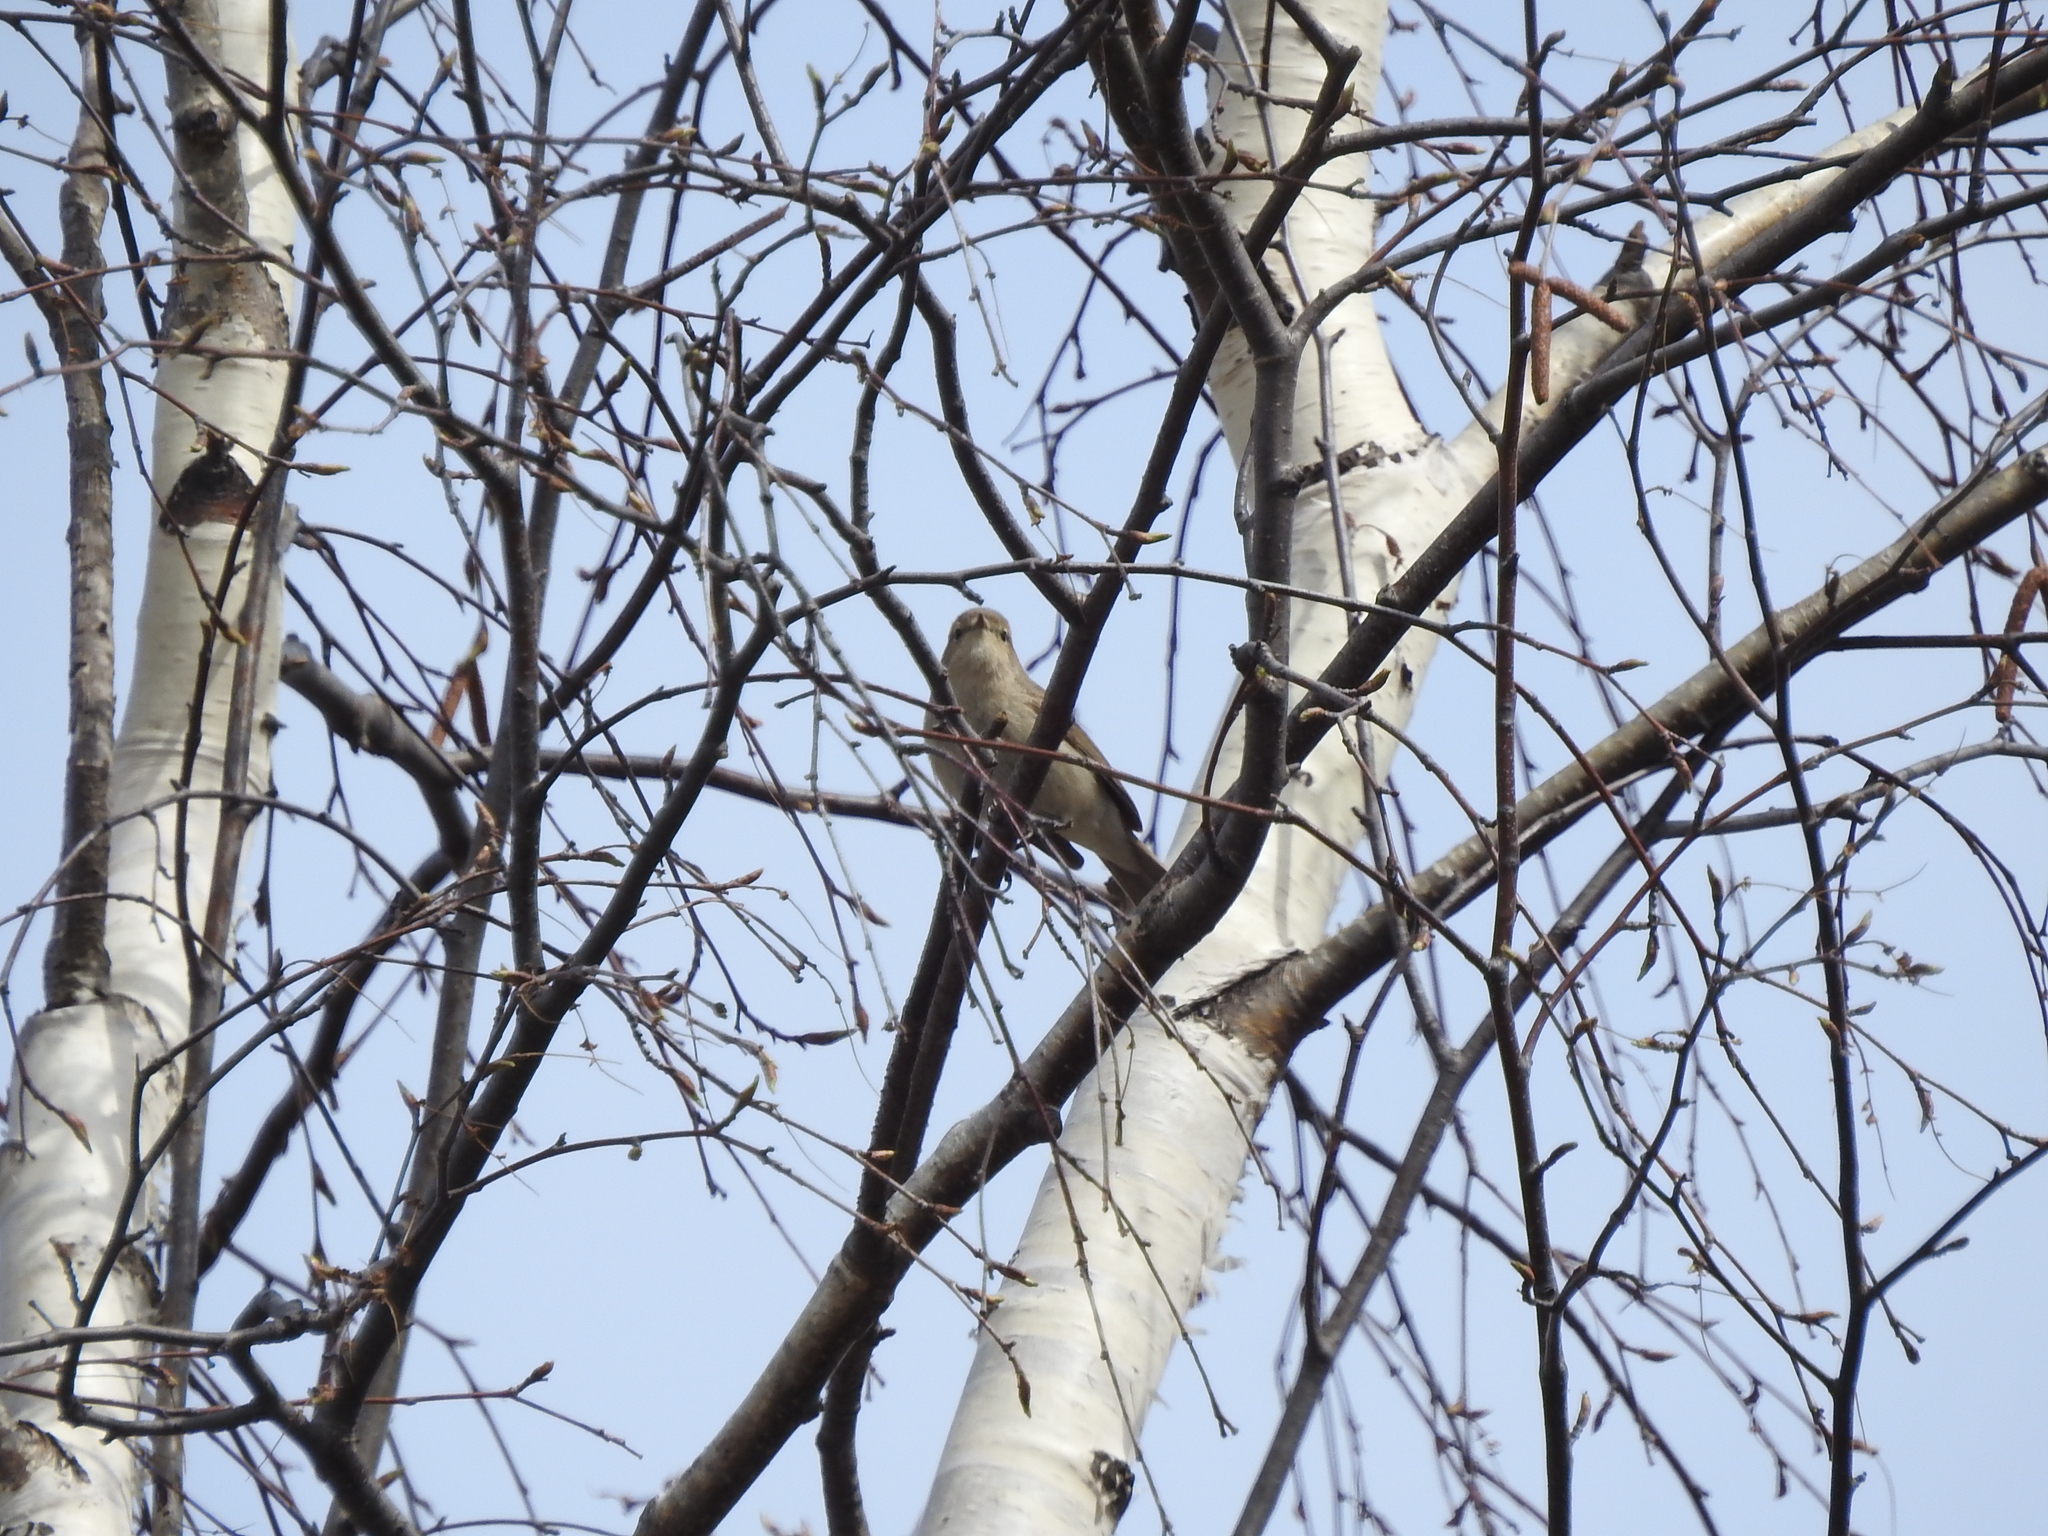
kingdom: Animalia
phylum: Chordata
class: Aves
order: Passeriformes
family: Phylloscopidae
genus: Phylloscopus
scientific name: Phylloscopus collybita
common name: Common chiffchaff
